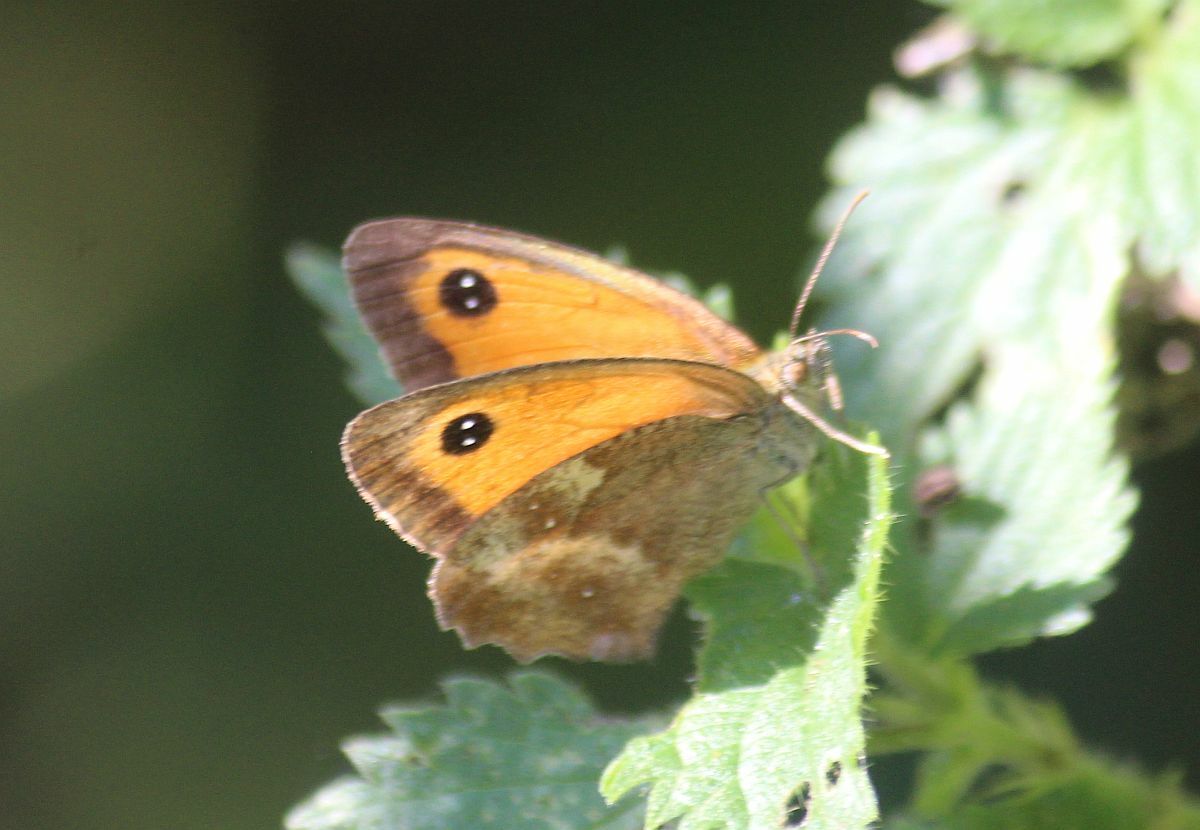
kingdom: Animalia
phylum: Arthropoda
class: Insecta
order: Lepidoptera
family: Nymphalidae
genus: Pyronia
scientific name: Pyronia tithonus
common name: Gatekeeper
